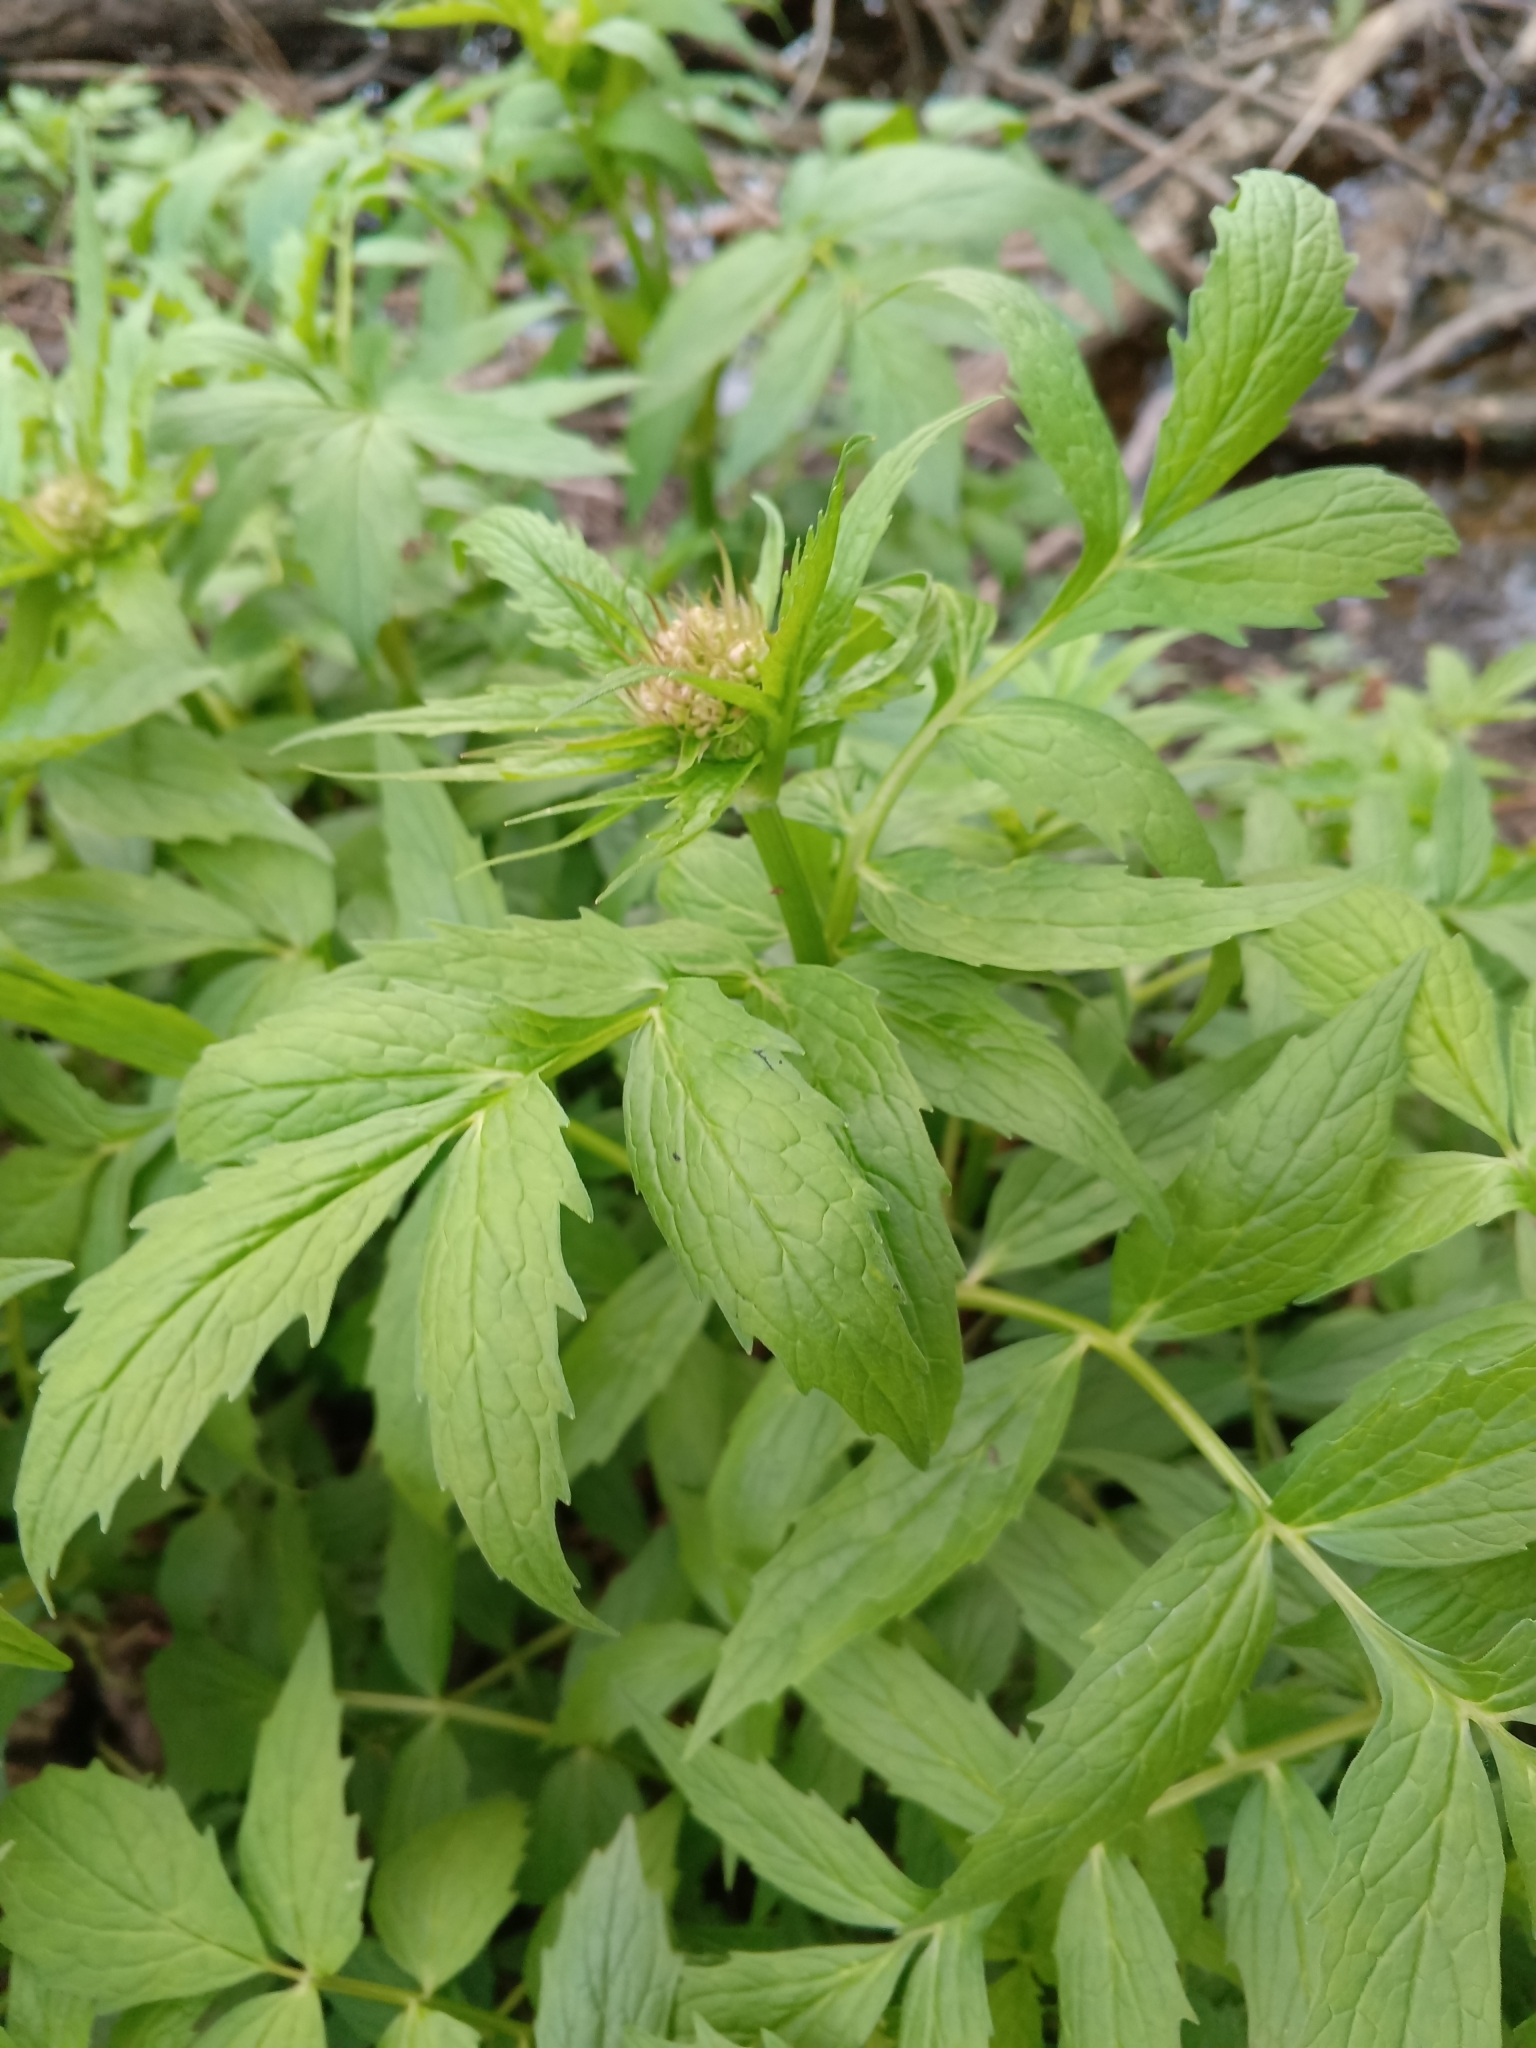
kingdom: Plantae
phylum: Tracheophyta
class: Magnoliopsida
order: Dipsacales
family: Caprifoliaceae
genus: Valeriana
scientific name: Valeriana officinalis
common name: Common valerian
